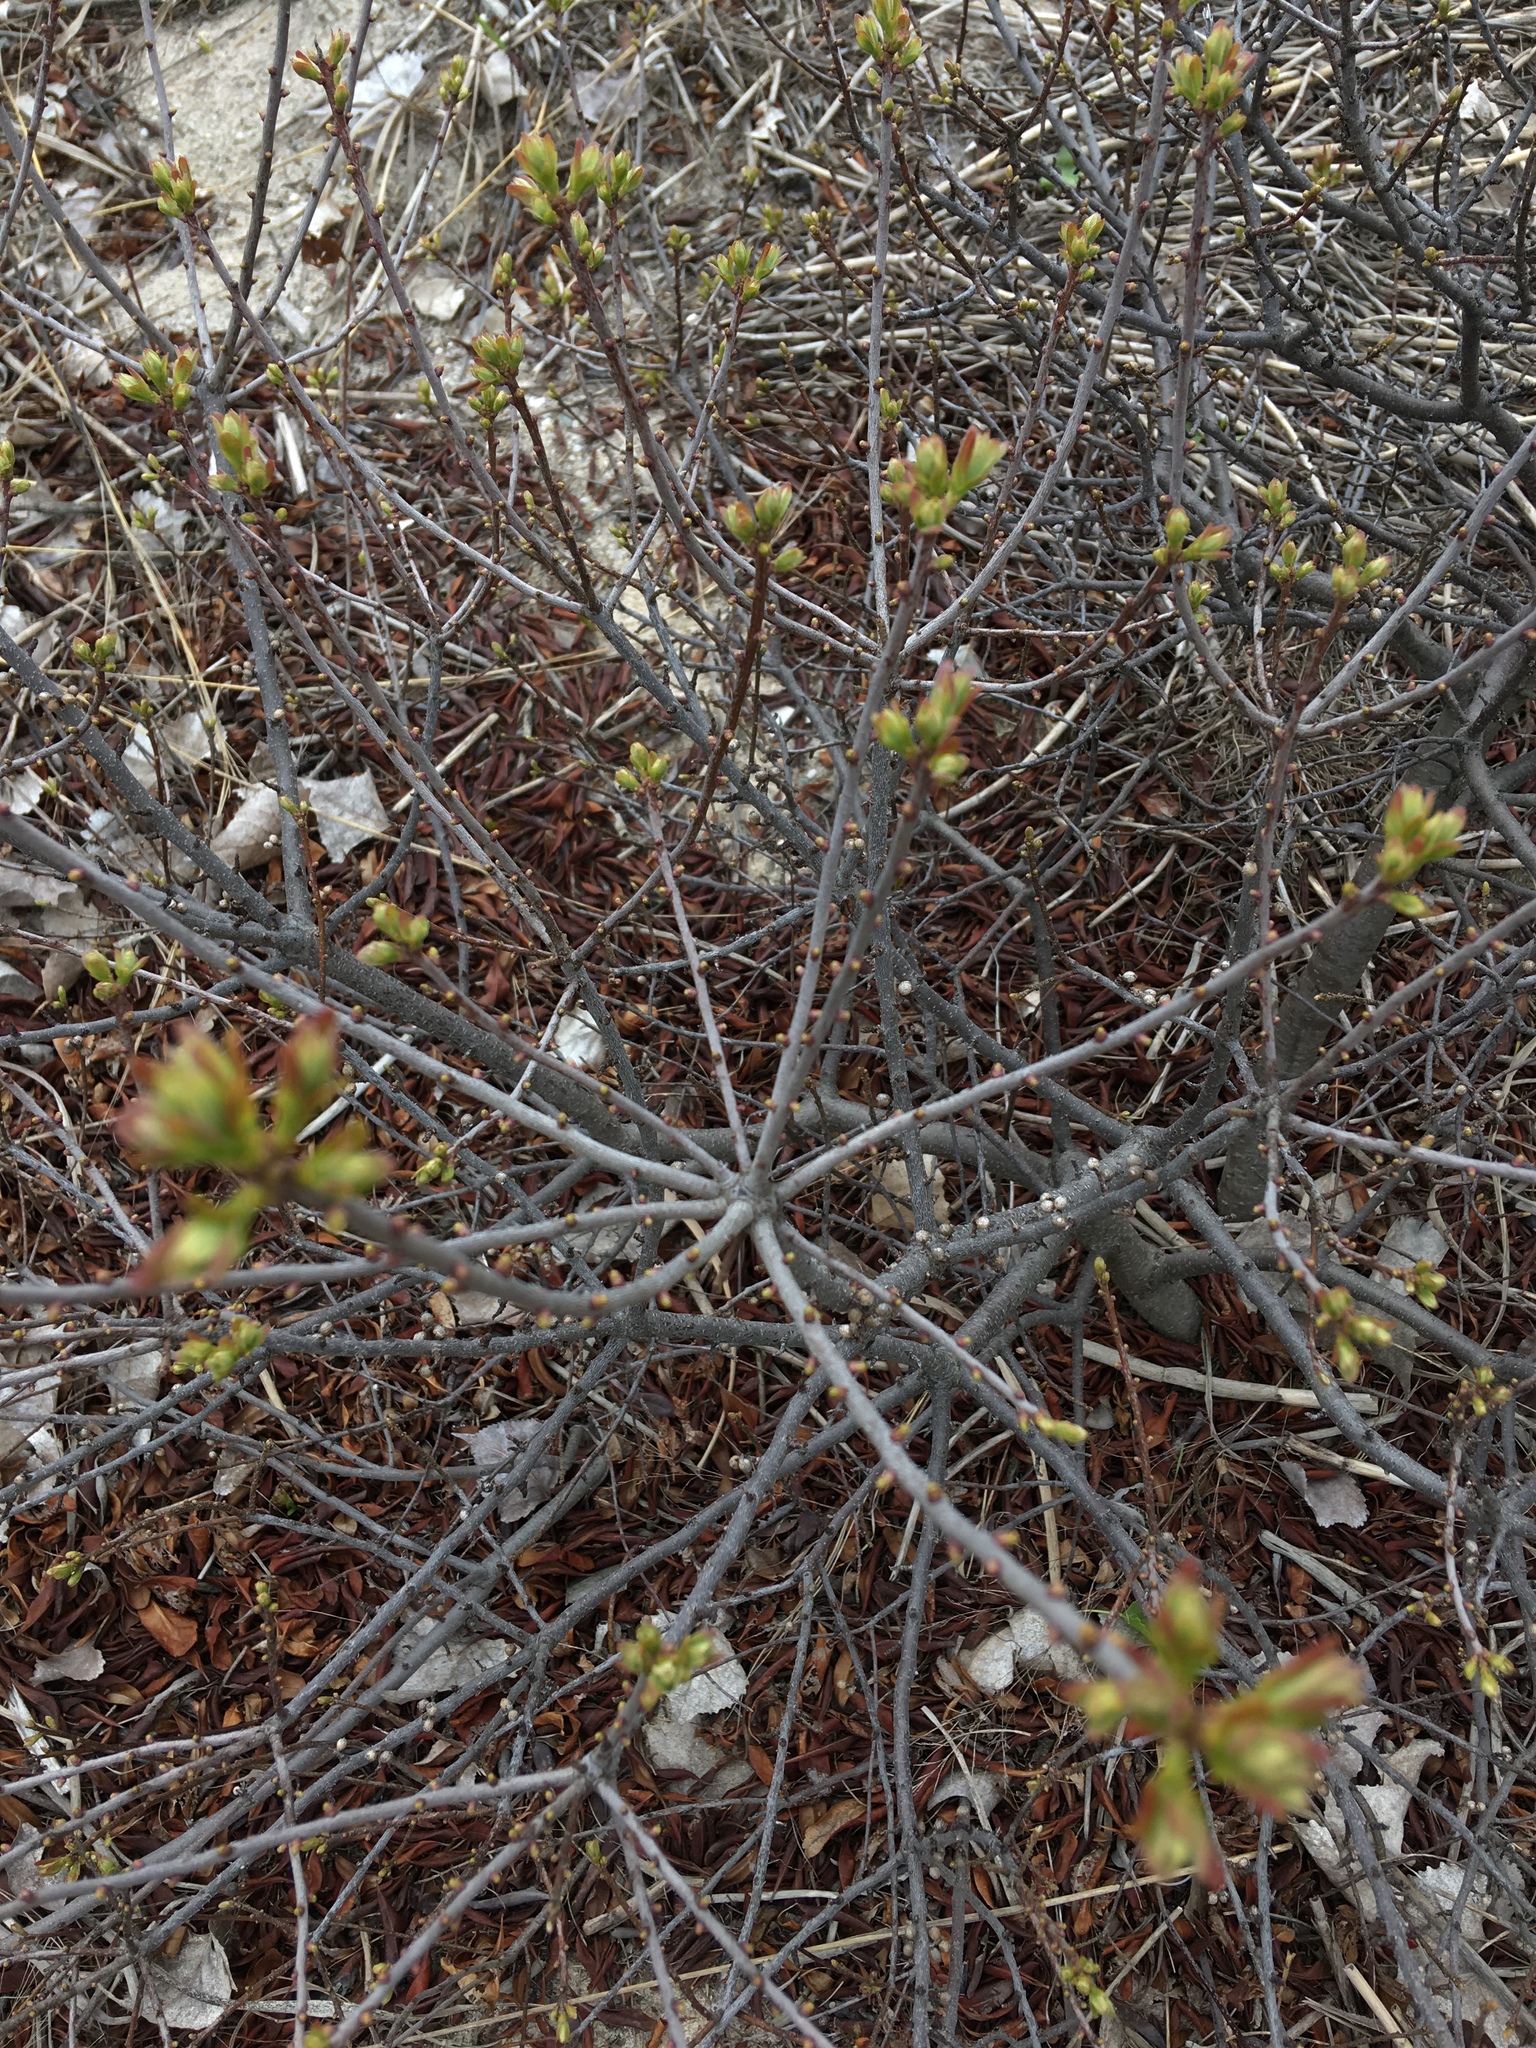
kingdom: Plantae
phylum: Tracheophyta
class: Magnoliopsida
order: Fagales
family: Myricaceae
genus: Morella
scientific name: Morella pensylvanica
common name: Northern bayberry
